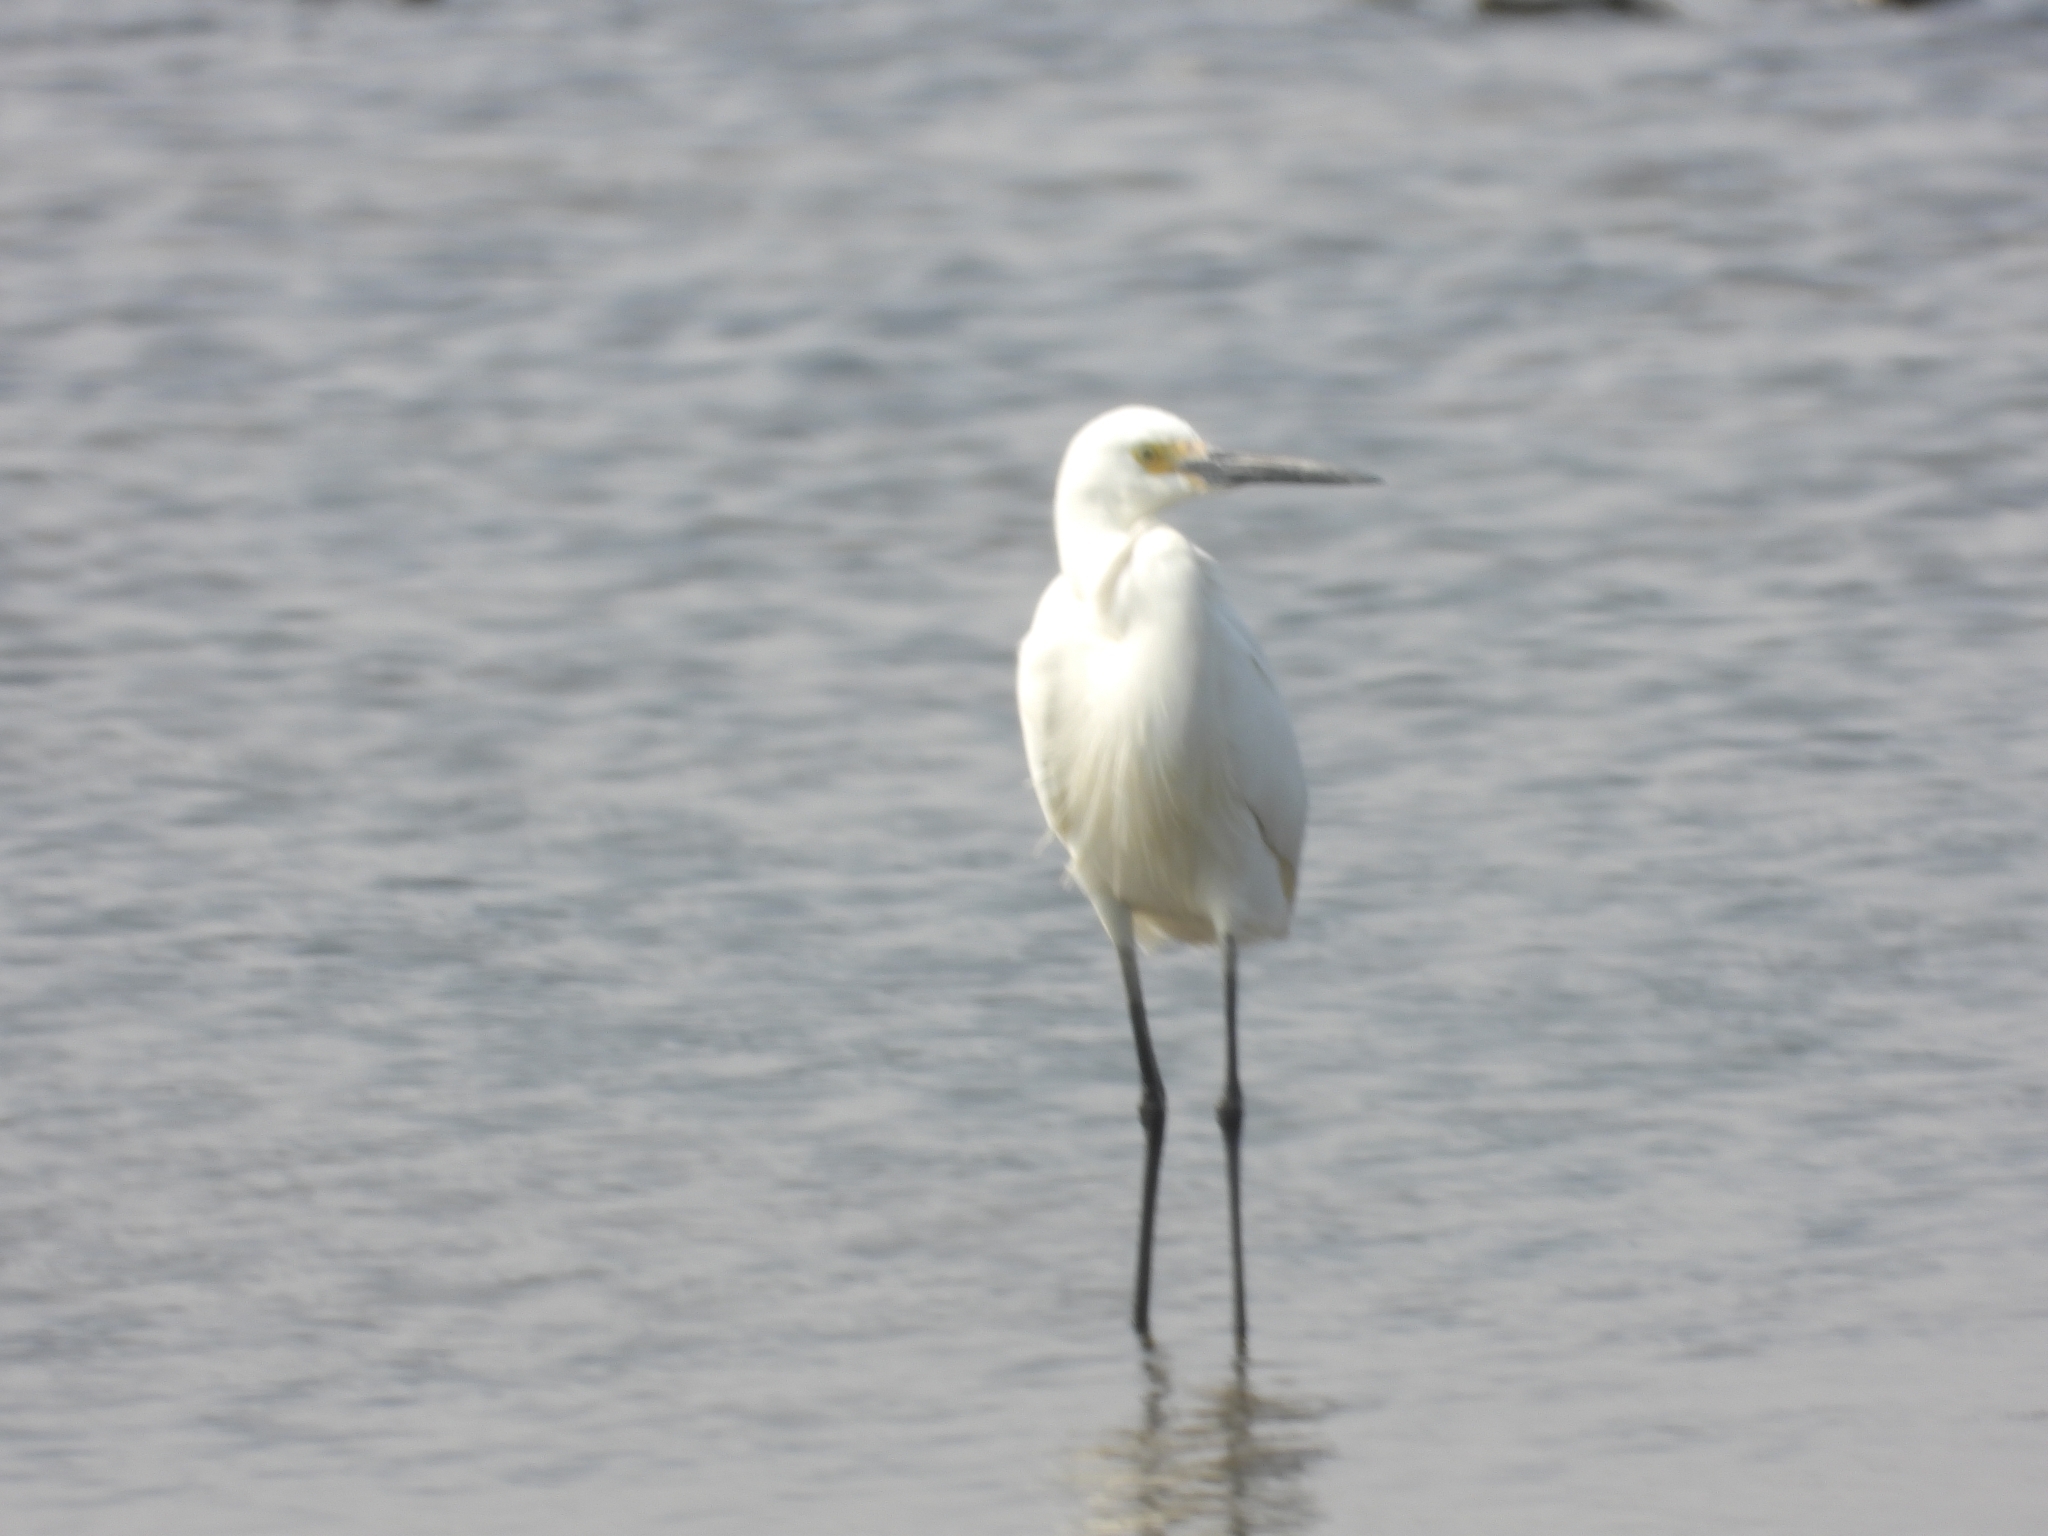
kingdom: Animalia
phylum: Chordata
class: Aves
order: Pelecaniformes
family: Ardeidae
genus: Egretta
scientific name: Egretta garzetta
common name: Little egret
